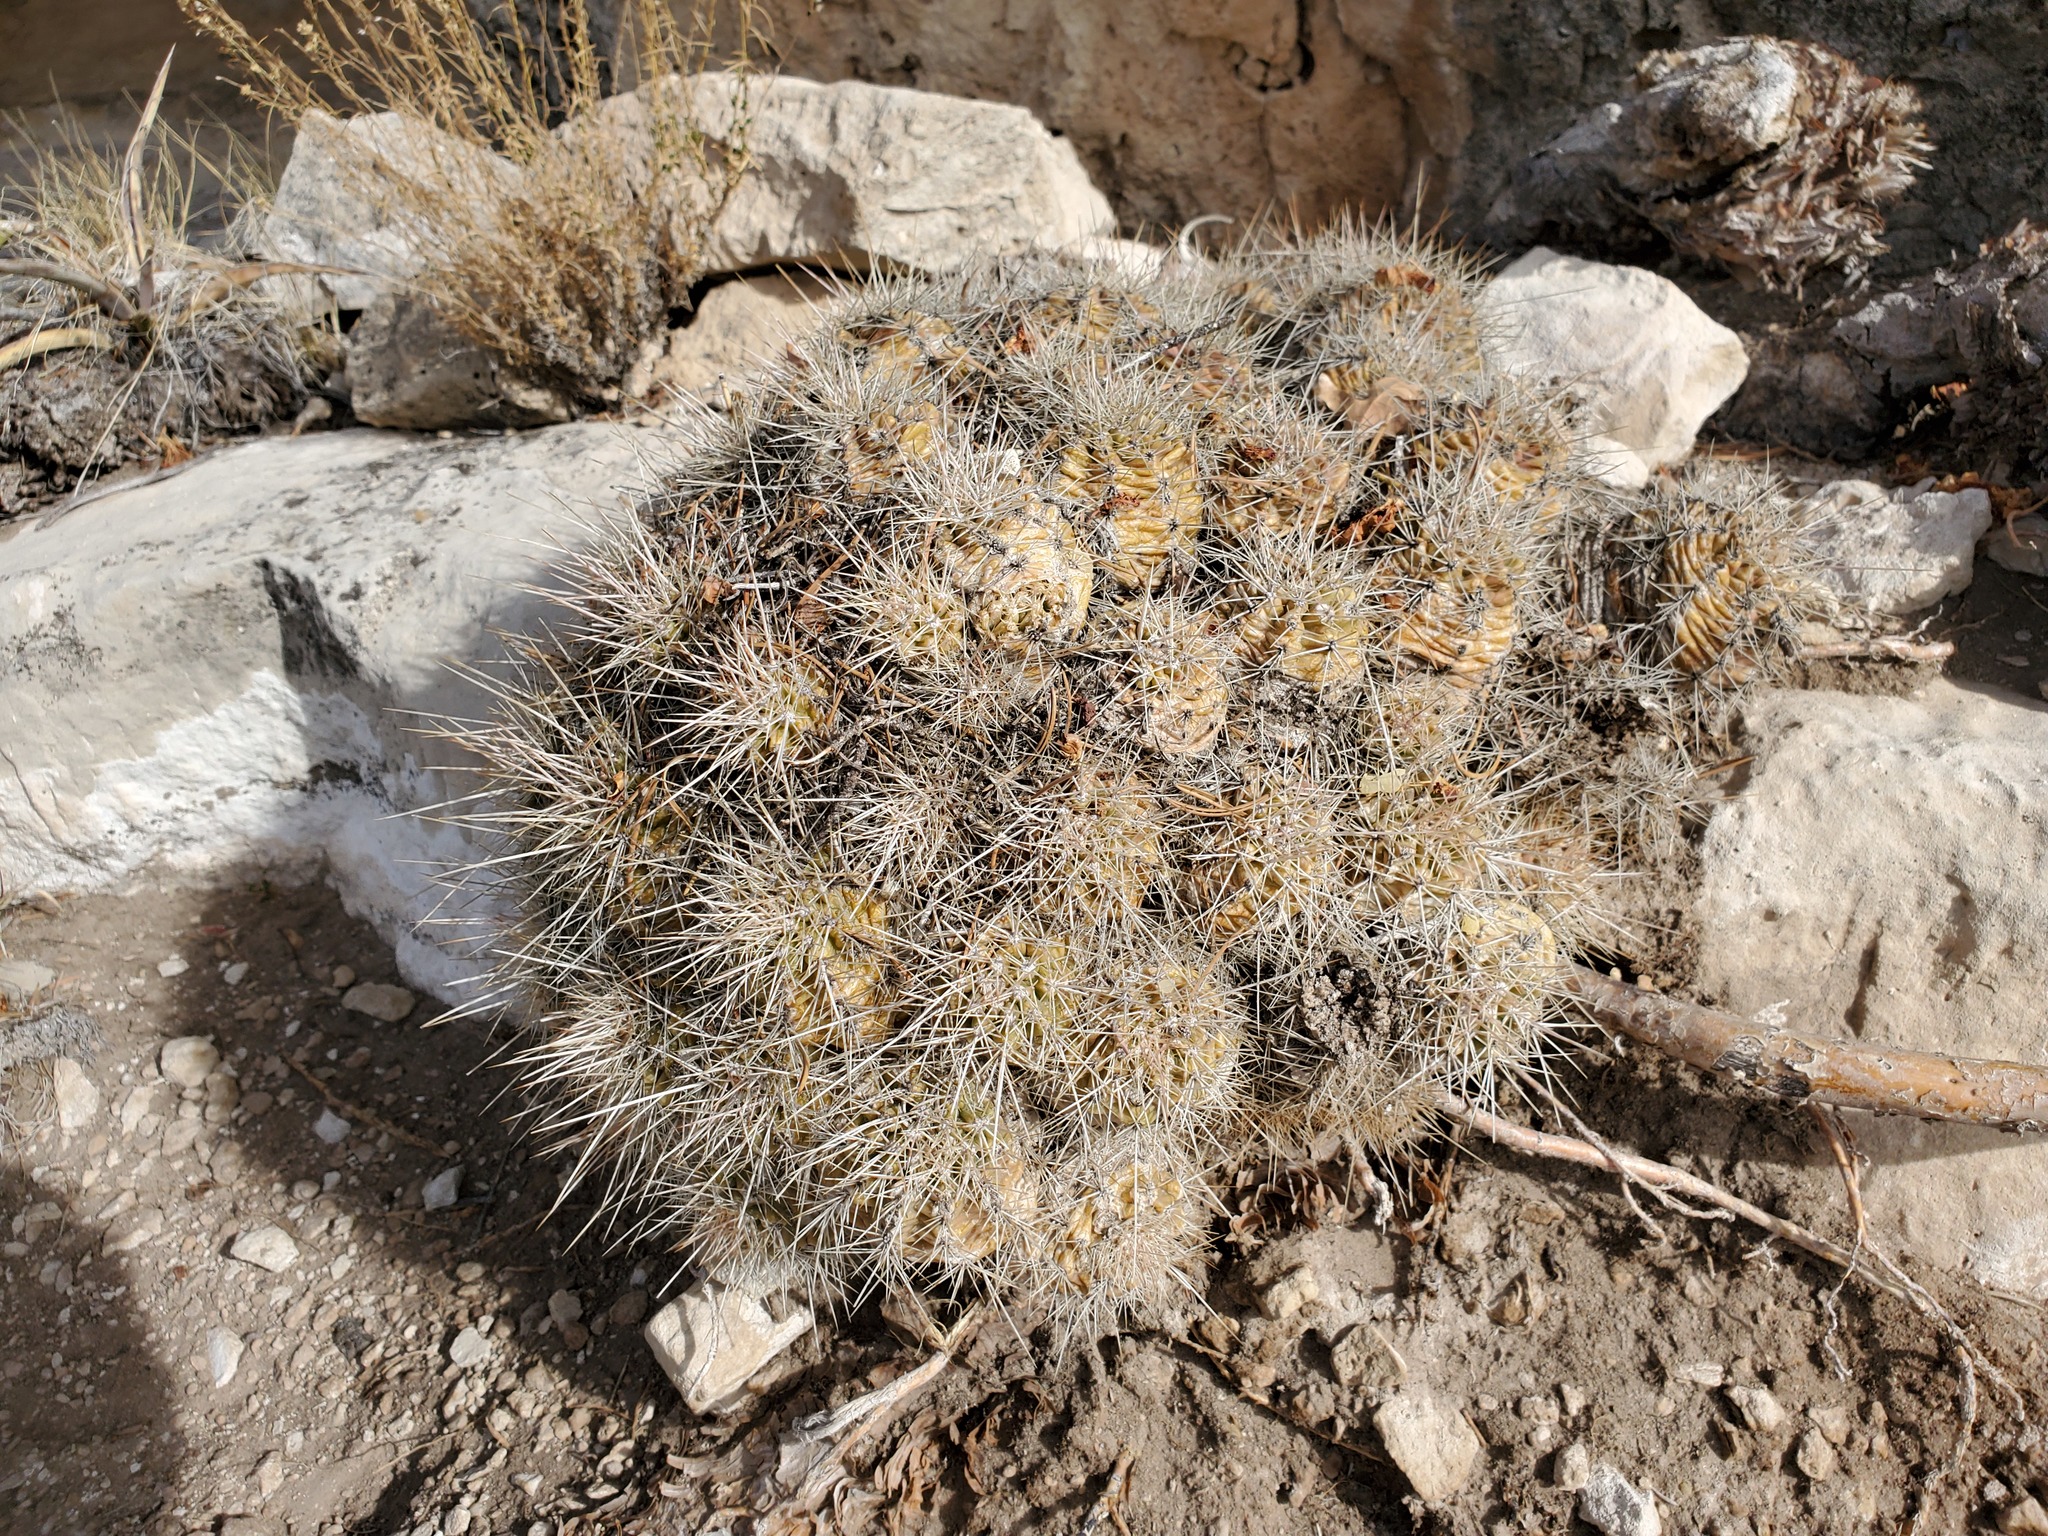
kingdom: Plantae
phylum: Tracheophyta
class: Magnoliopsida
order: Caryophyllales
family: Cactaceae
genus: Echinocereus
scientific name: Echinocereus bakeri
